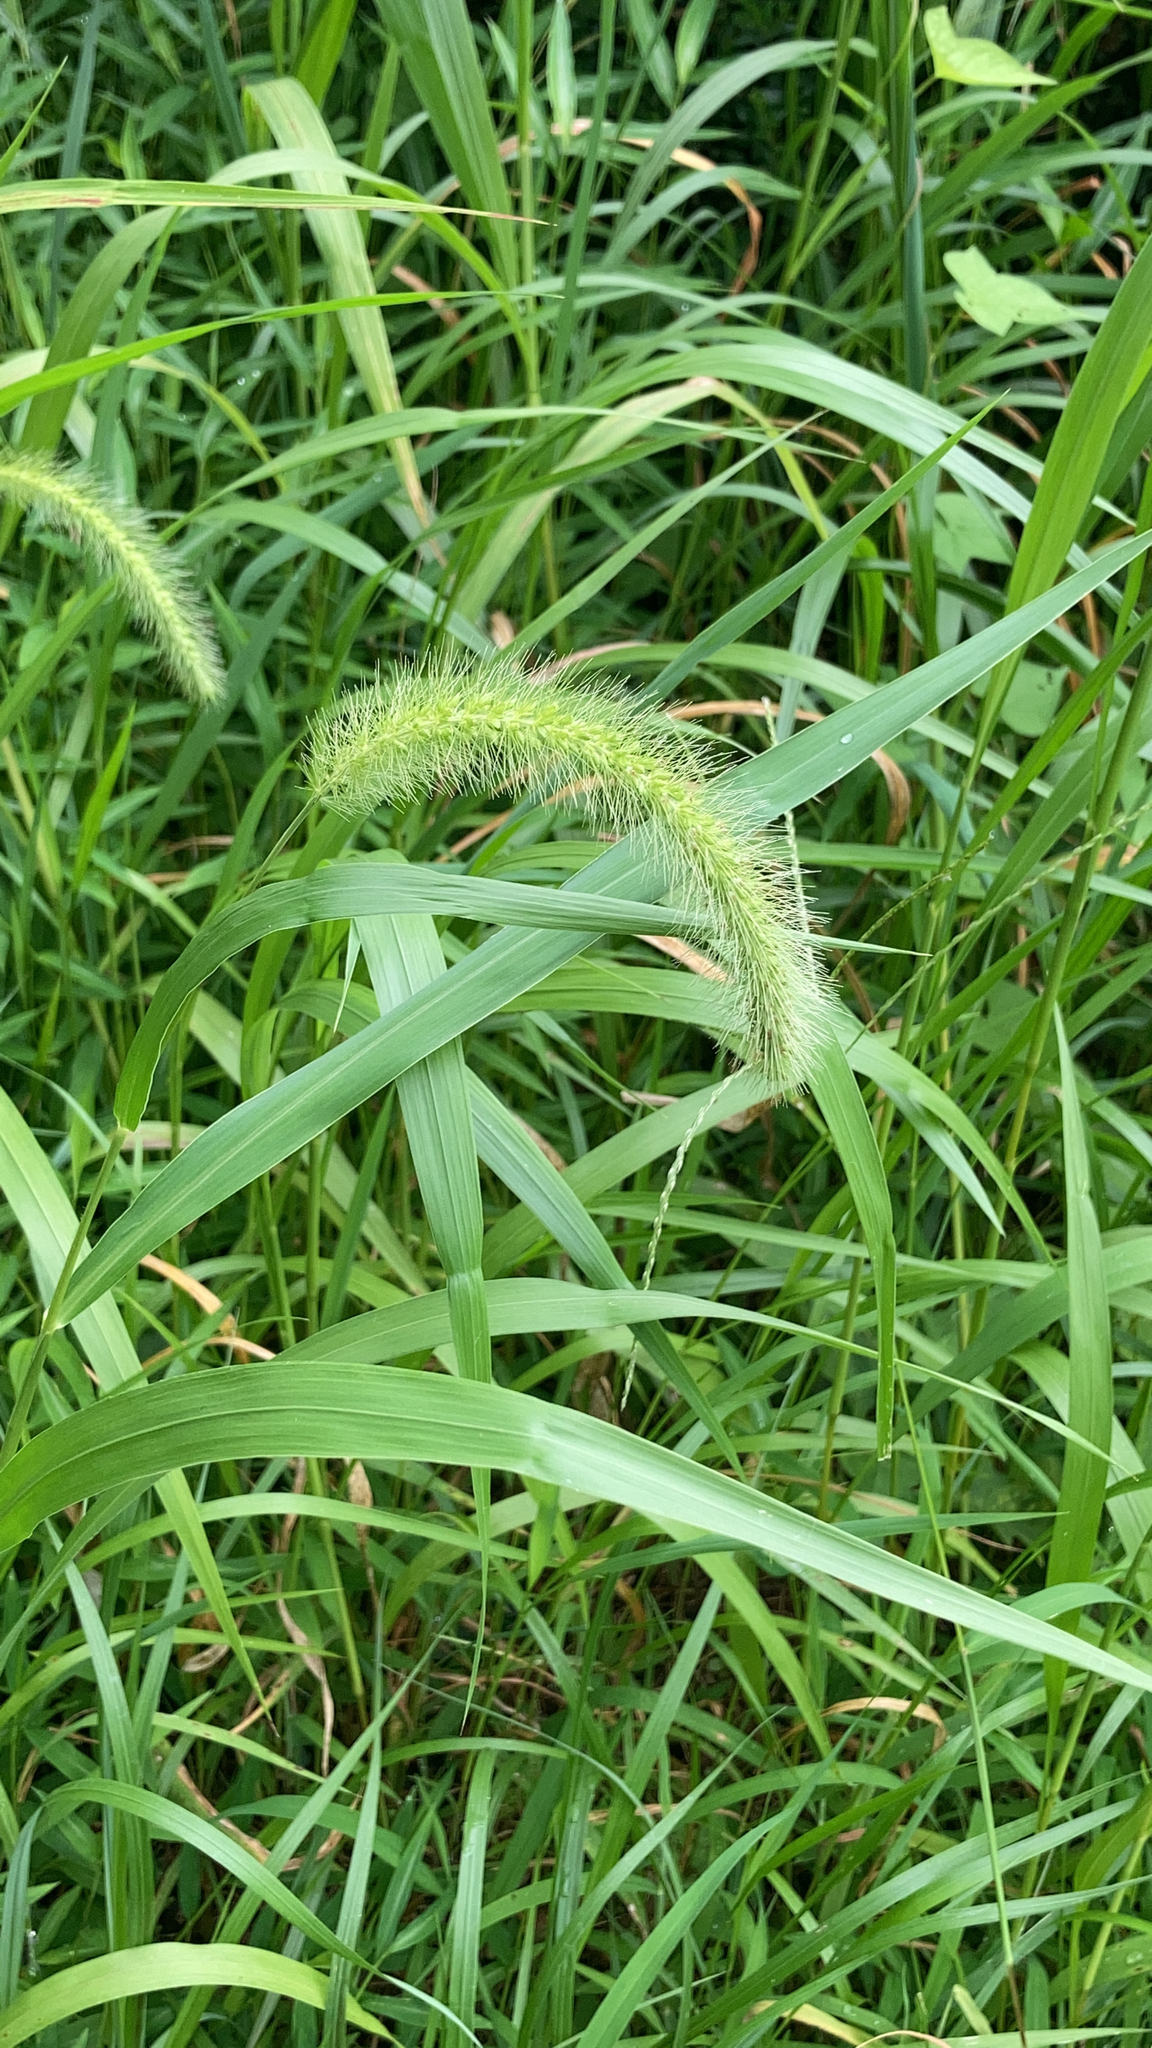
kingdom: Plantae
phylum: Tracheophyta
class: Liliopsida
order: Poales
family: Poaceae
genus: Setaria
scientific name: Setaria faberi
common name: Nodding bristle-grass
